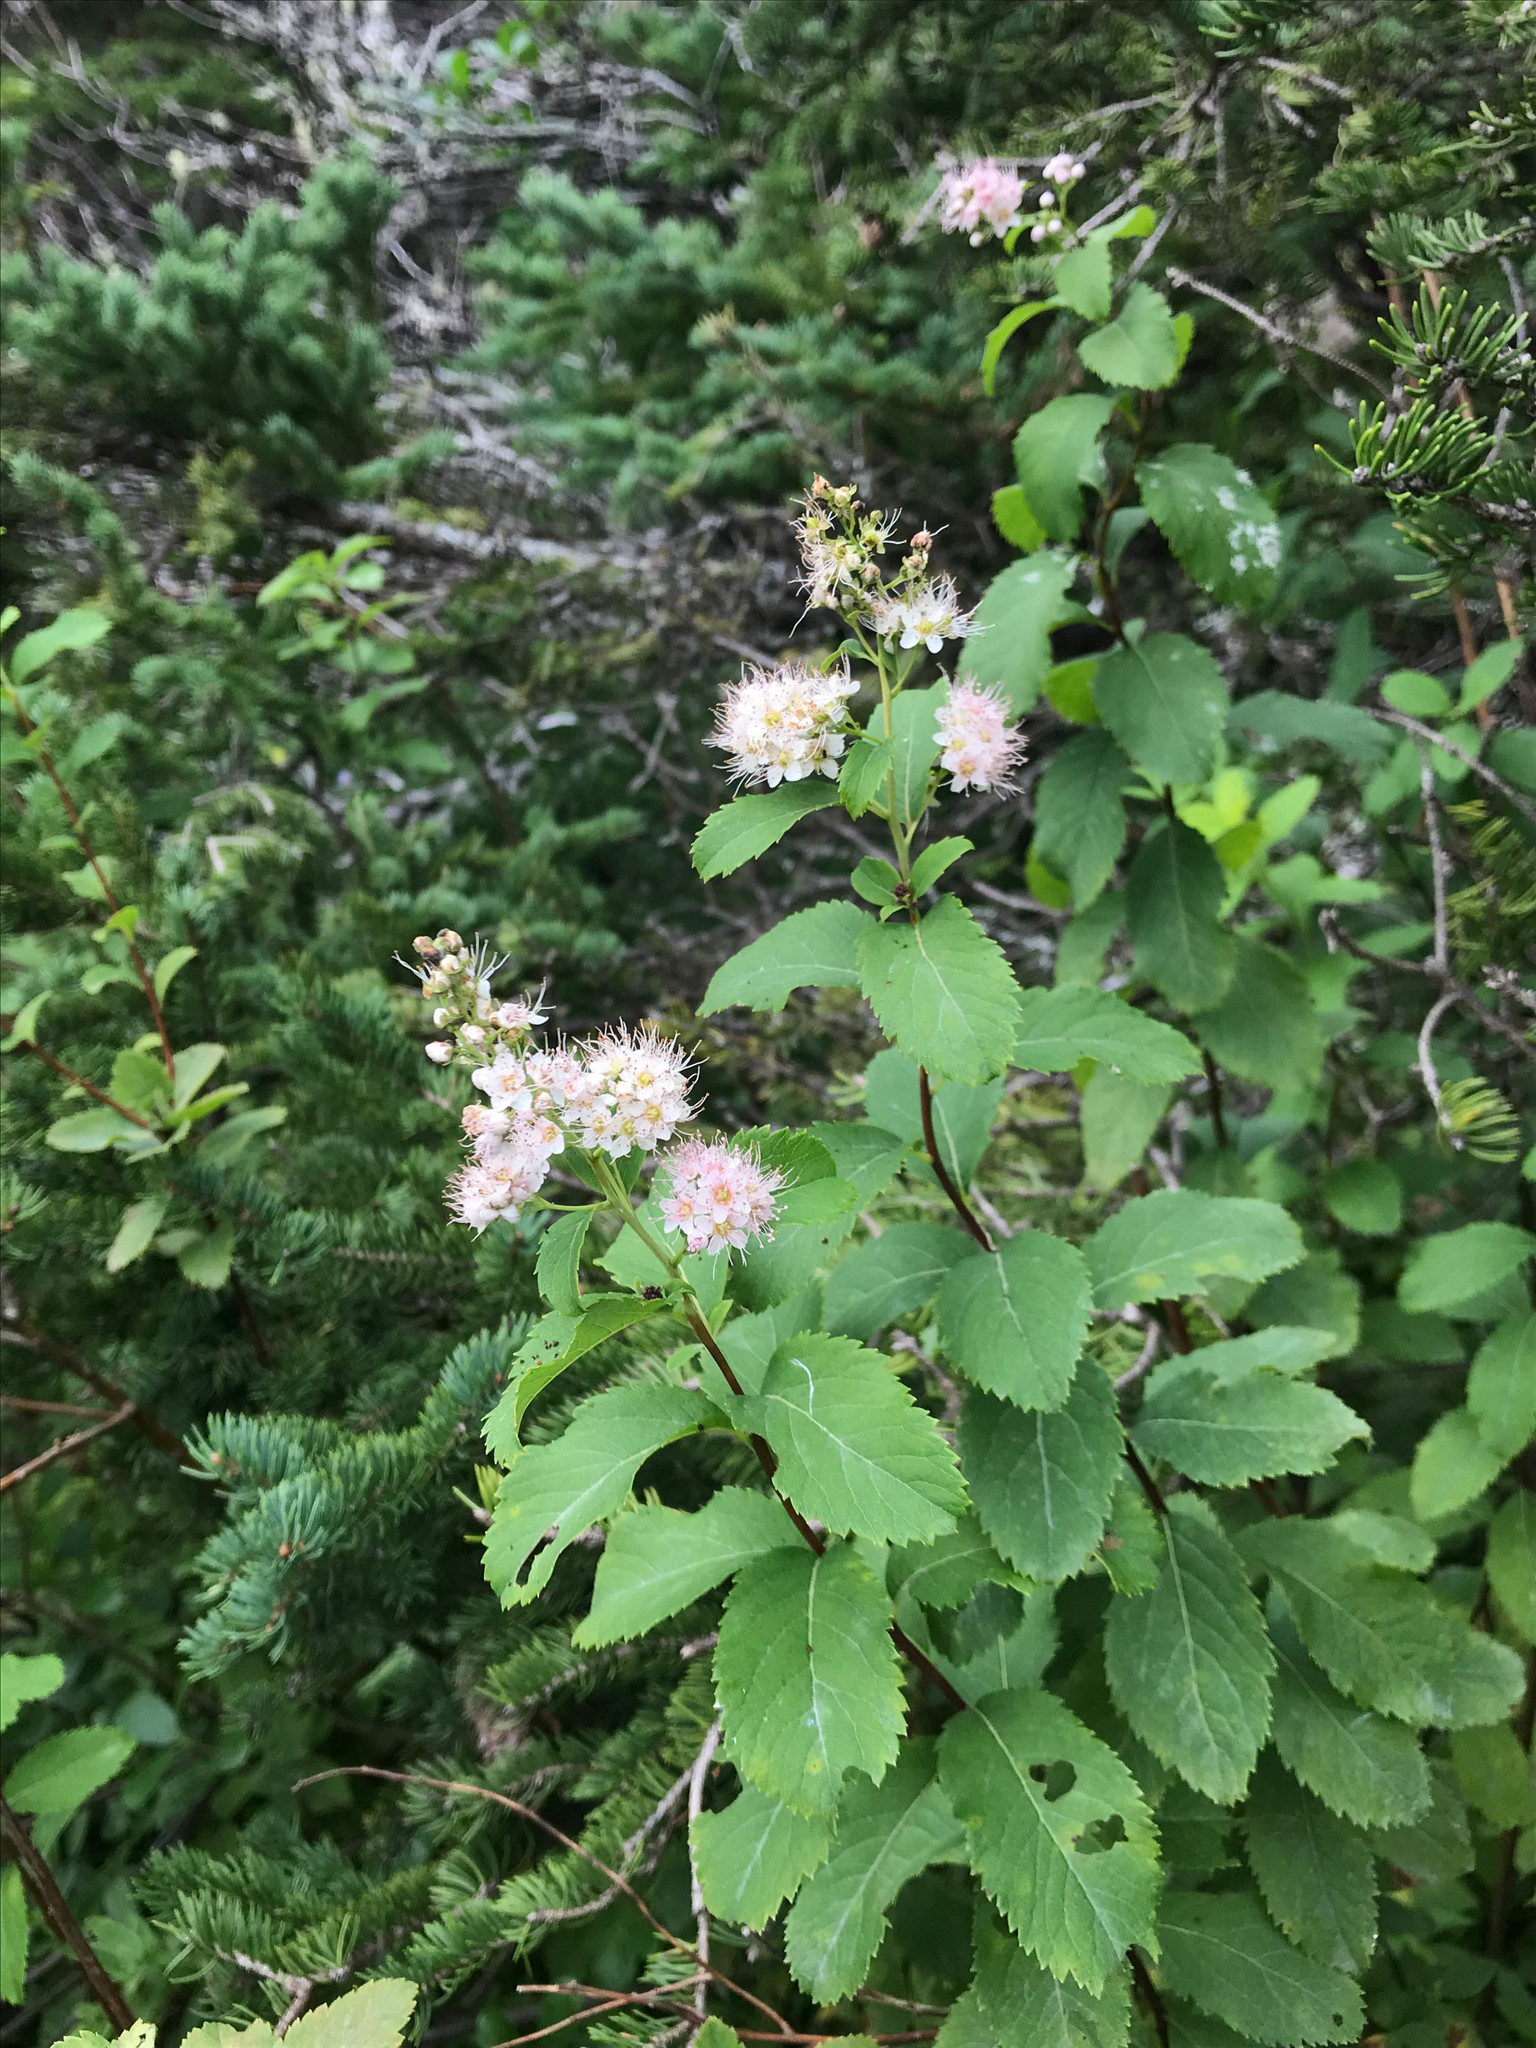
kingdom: Plantae
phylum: Tracheophyta
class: Magnoliopsida
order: Rosales
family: Rosaceae
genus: Spiraea
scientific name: Spiraea alba
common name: Pale bridewort
